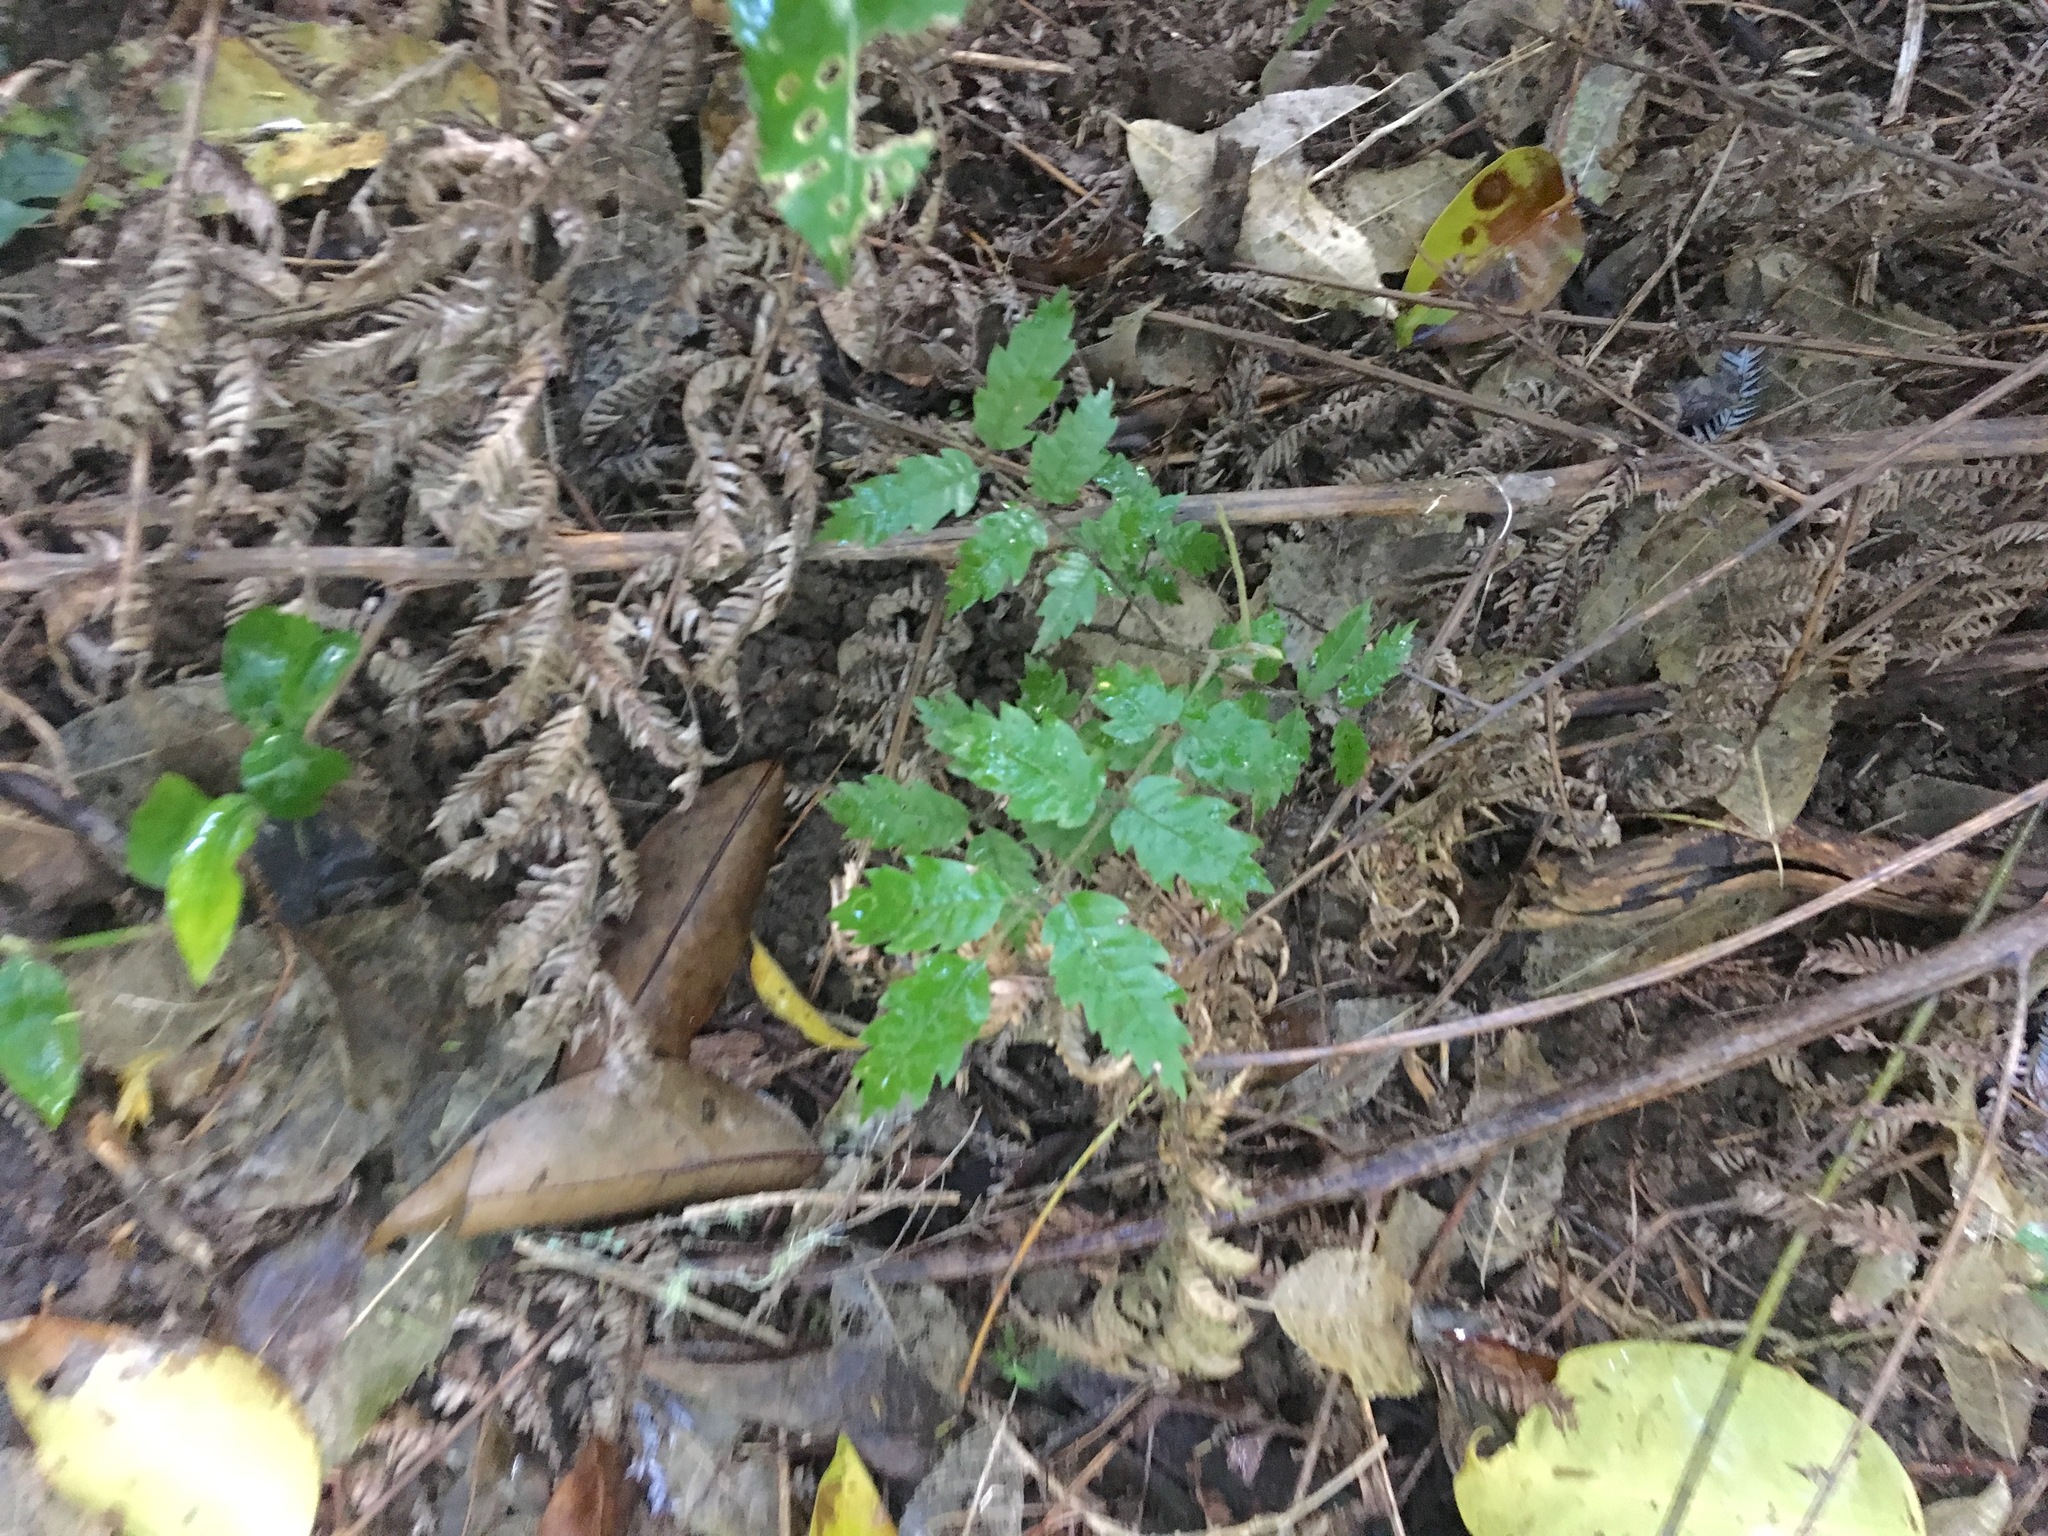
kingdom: Plantae
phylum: Tracheophyta
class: Magnoliopsida
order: Sapindales
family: Sapindaceae
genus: Alectryon
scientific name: Alectryon excelsus
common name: Three kings titoki
